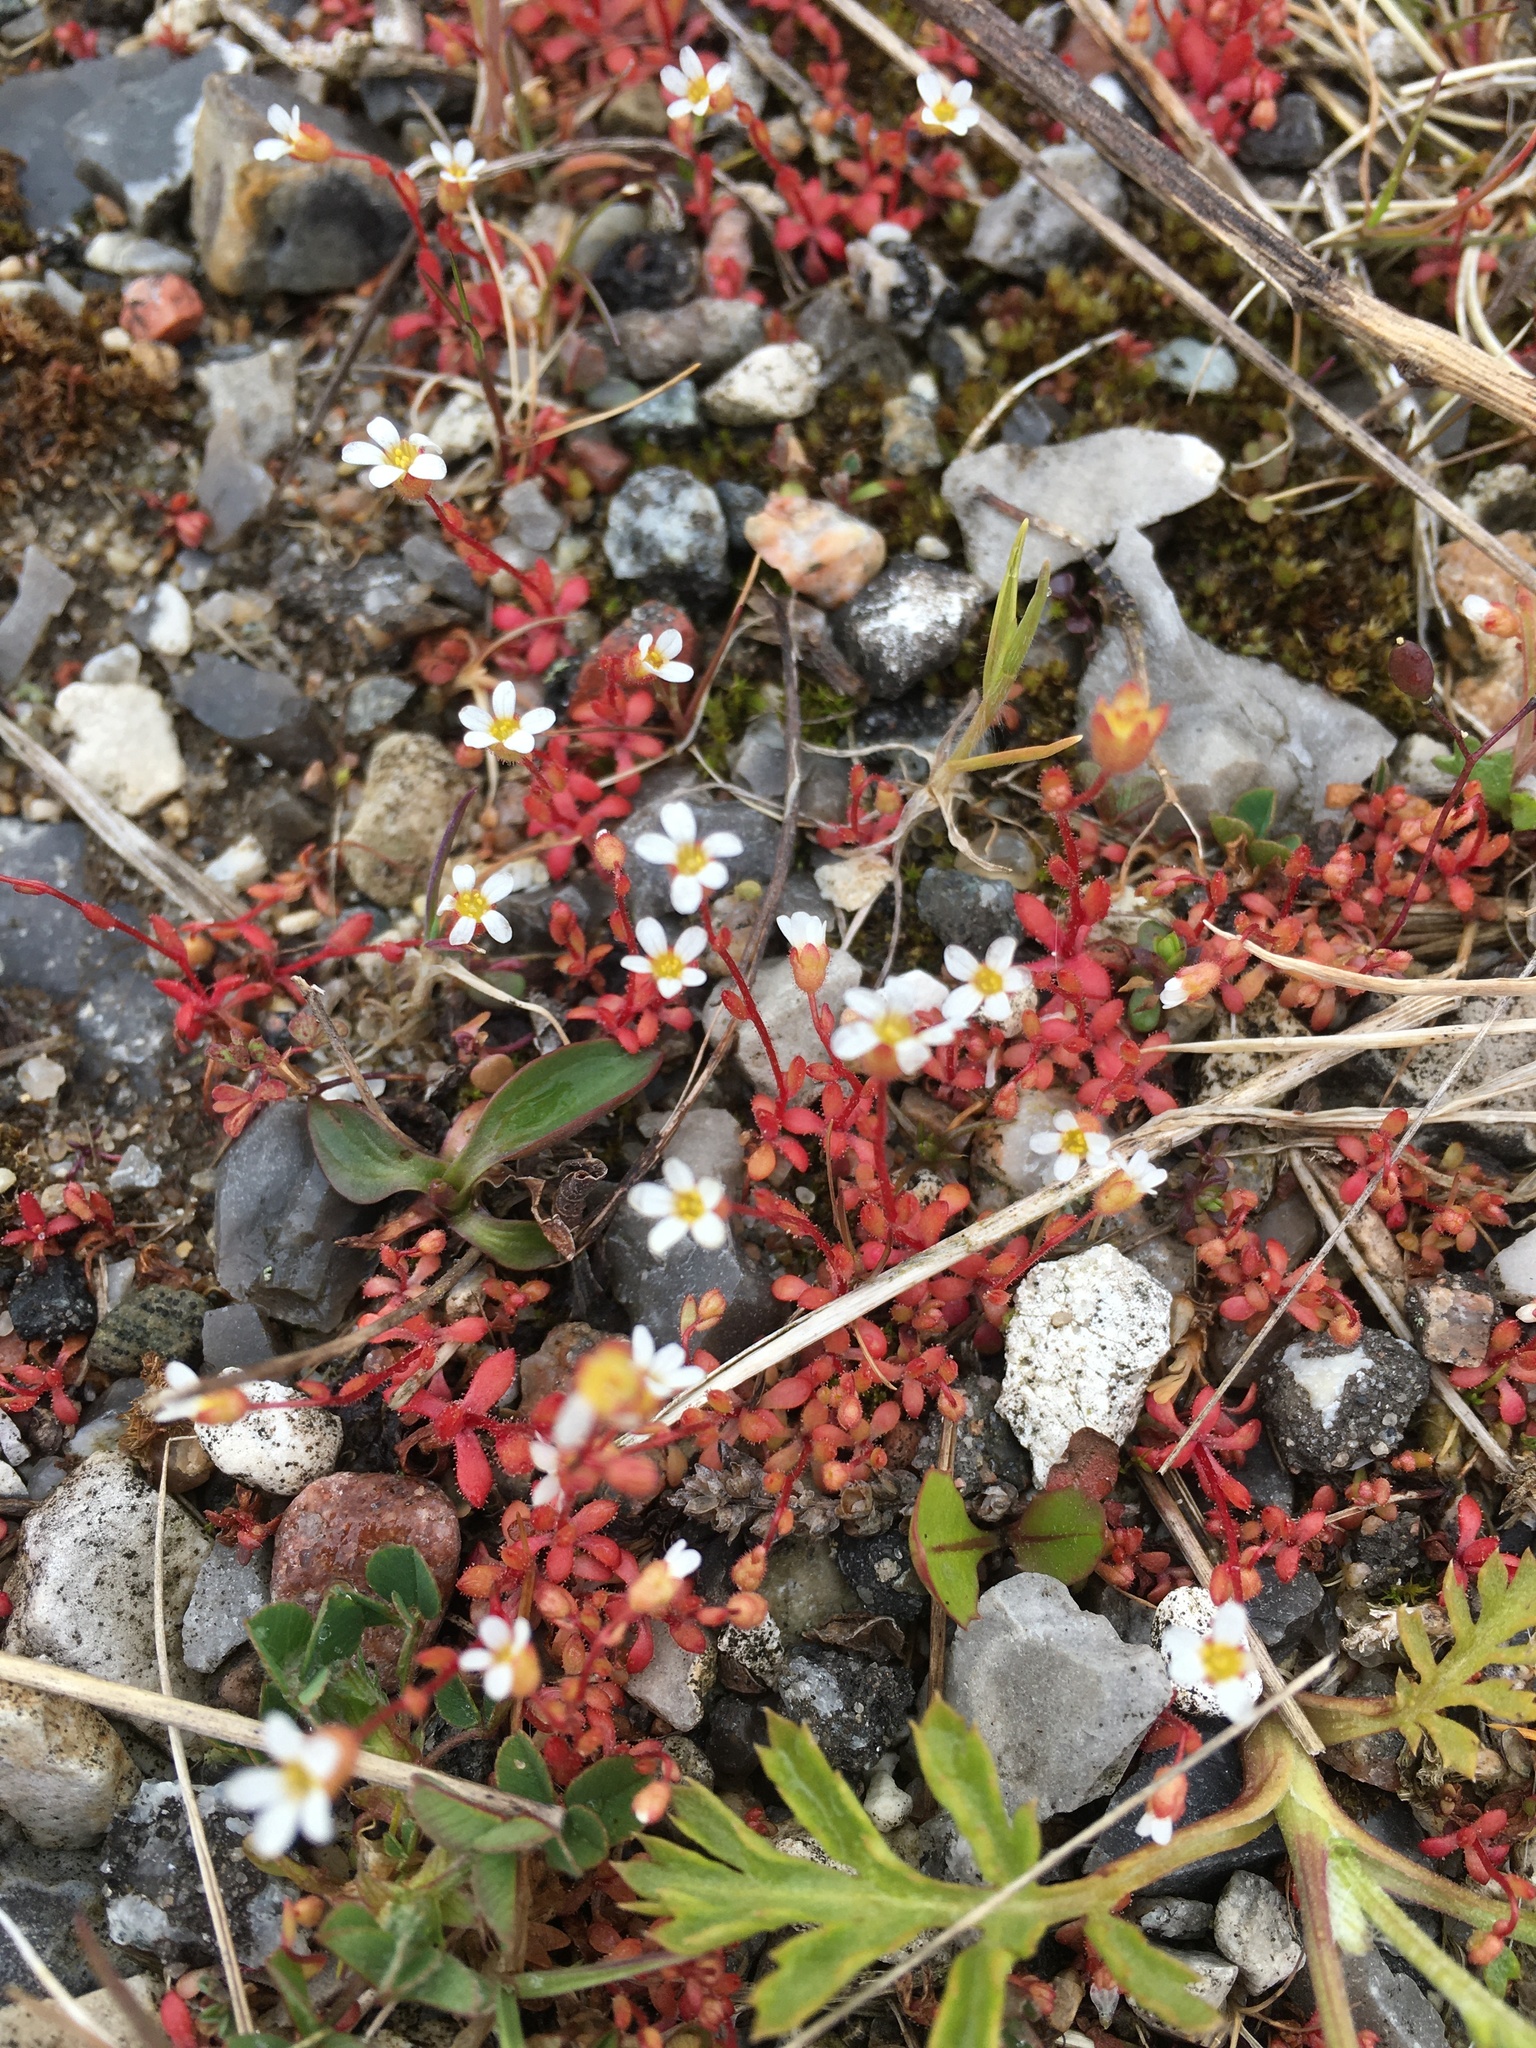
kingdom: Plantae
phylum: Tracheophyta
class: Magnoliopsida
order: Saxifragales
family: Saxifragaceae
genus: Saxifraga
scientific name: Saxifraga tridactylites
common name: Rue-leaved saxifrage
